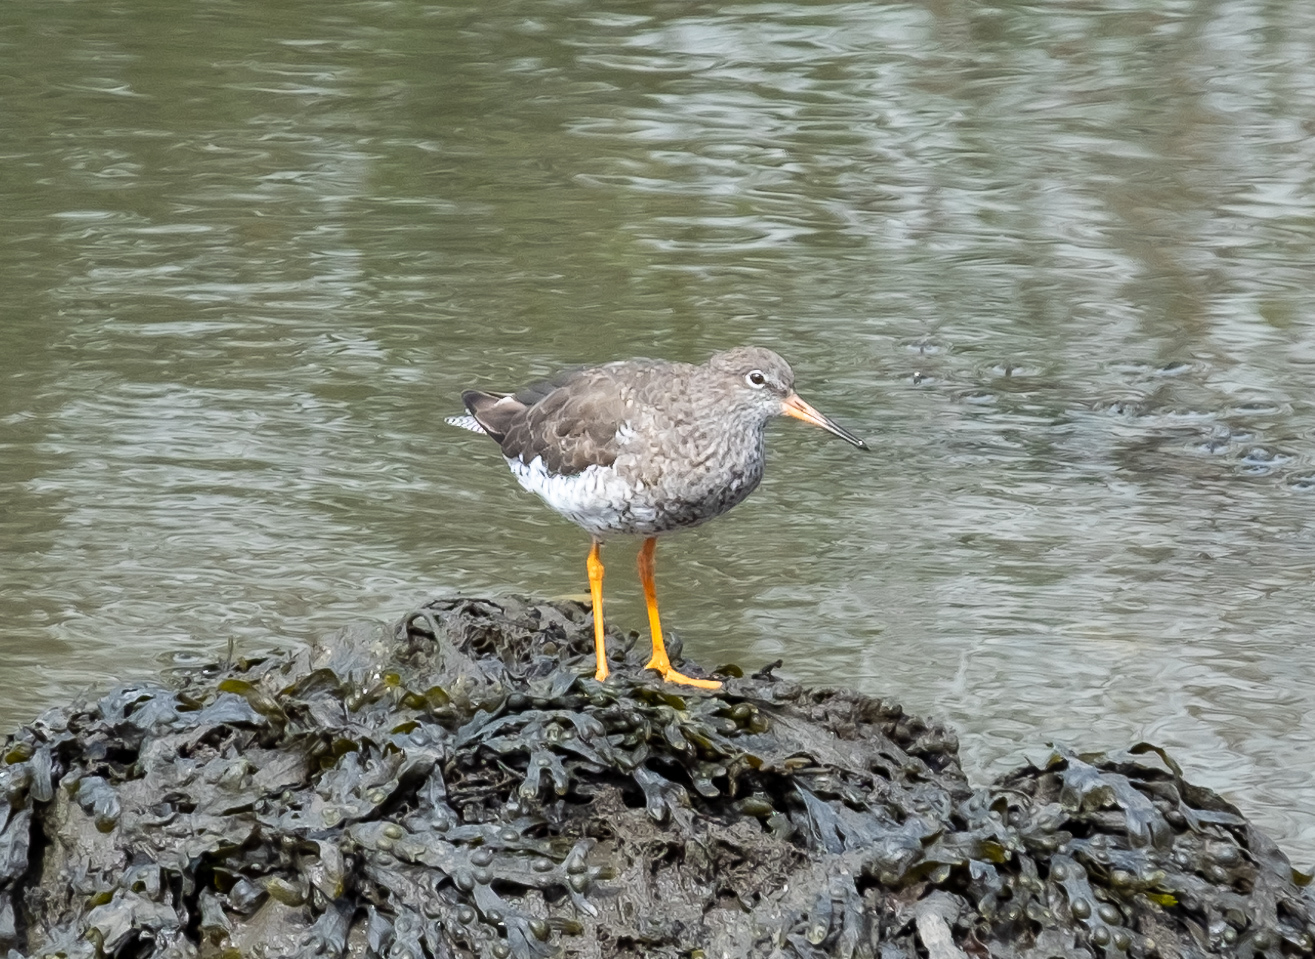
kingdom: Animalia
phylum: Chordata
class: Aves
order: Charadriiformes
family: Scolopacidae
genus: Tringa
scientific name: Tringa totanus
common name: Common redshank
